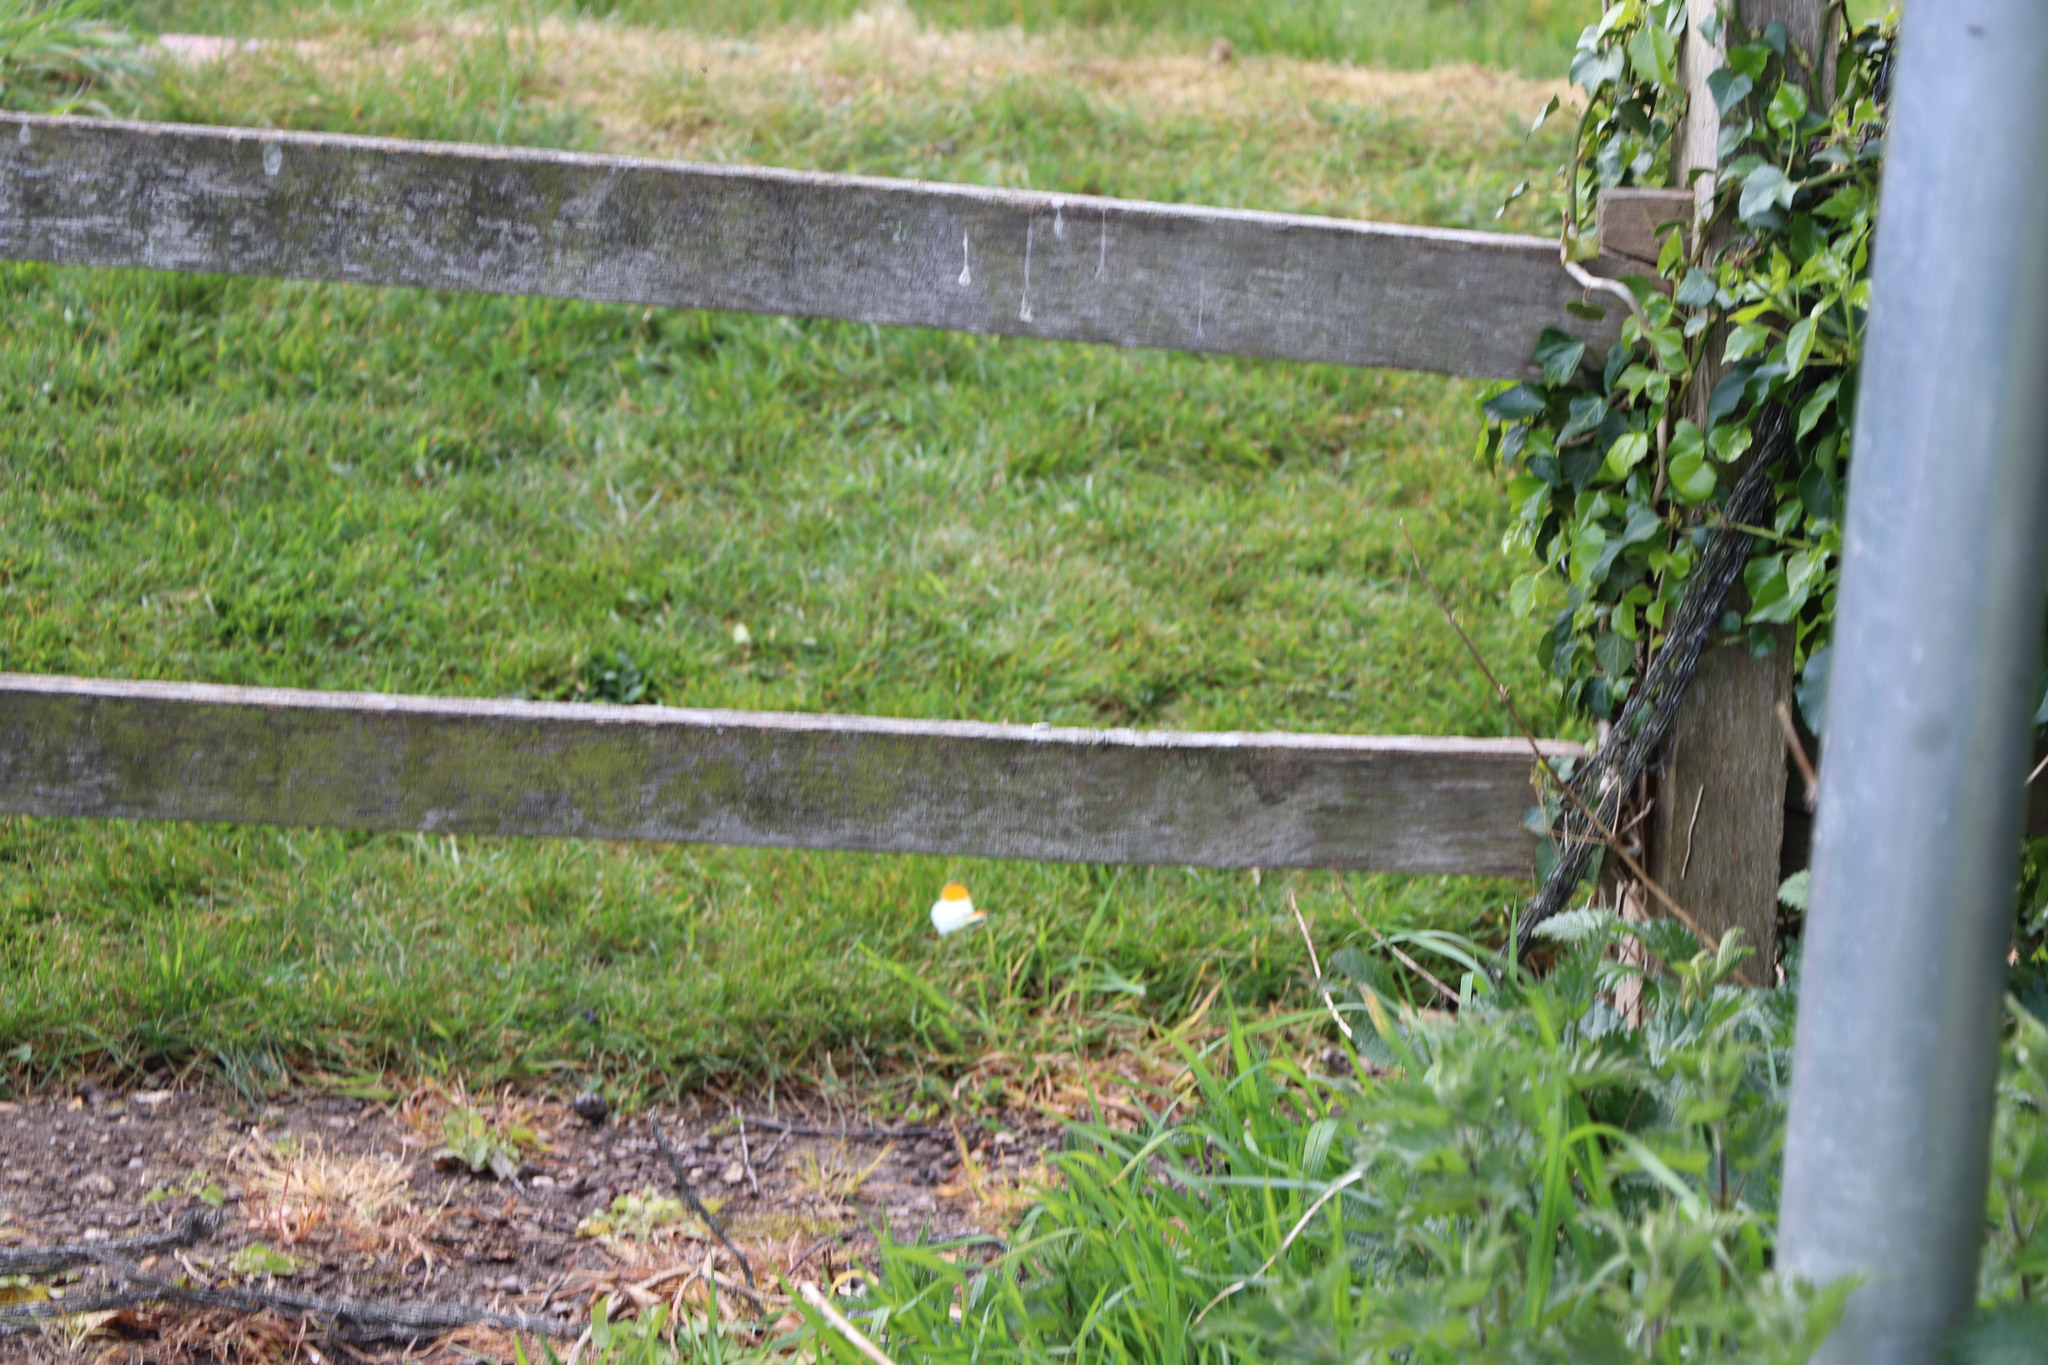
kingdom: Animalia
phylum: Arthropoda
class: Insecta
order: Lepidoptera
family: Pieridae
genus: Anthocharis
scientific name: Anthocharis cardamines
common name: Orange-tip
